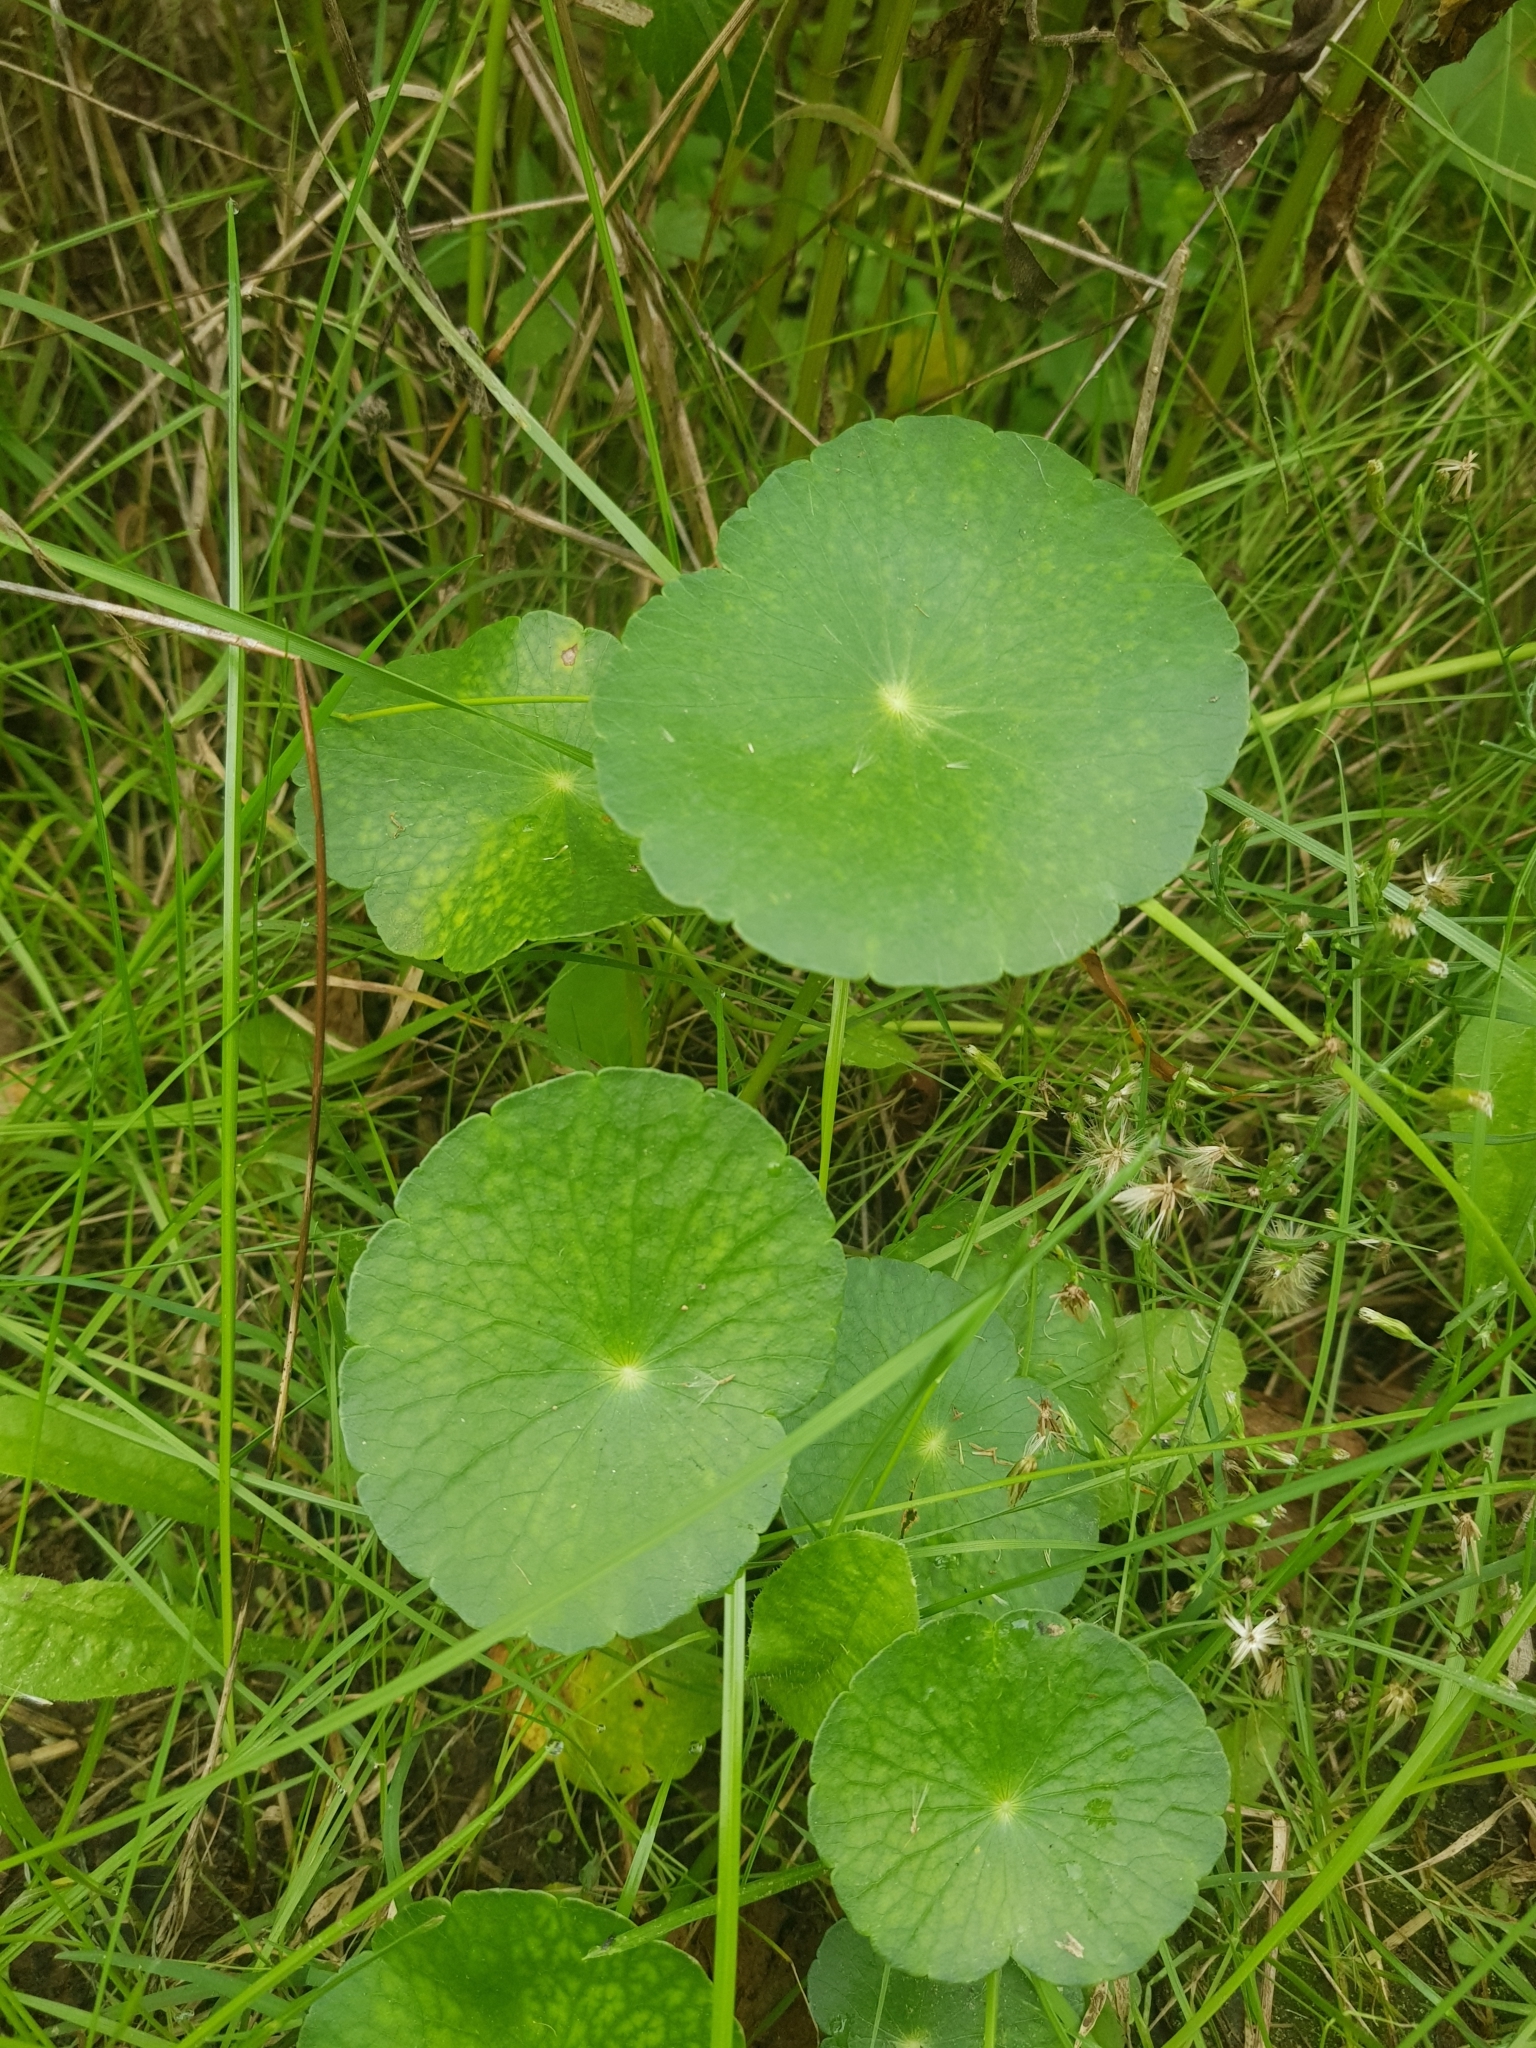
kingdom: Plantae
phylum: Tracheophyta
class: Magnoliopsida
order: Apiales
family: Araliaceae
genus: Hydrocotyle
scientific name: Hydrocotyle bonariensis
